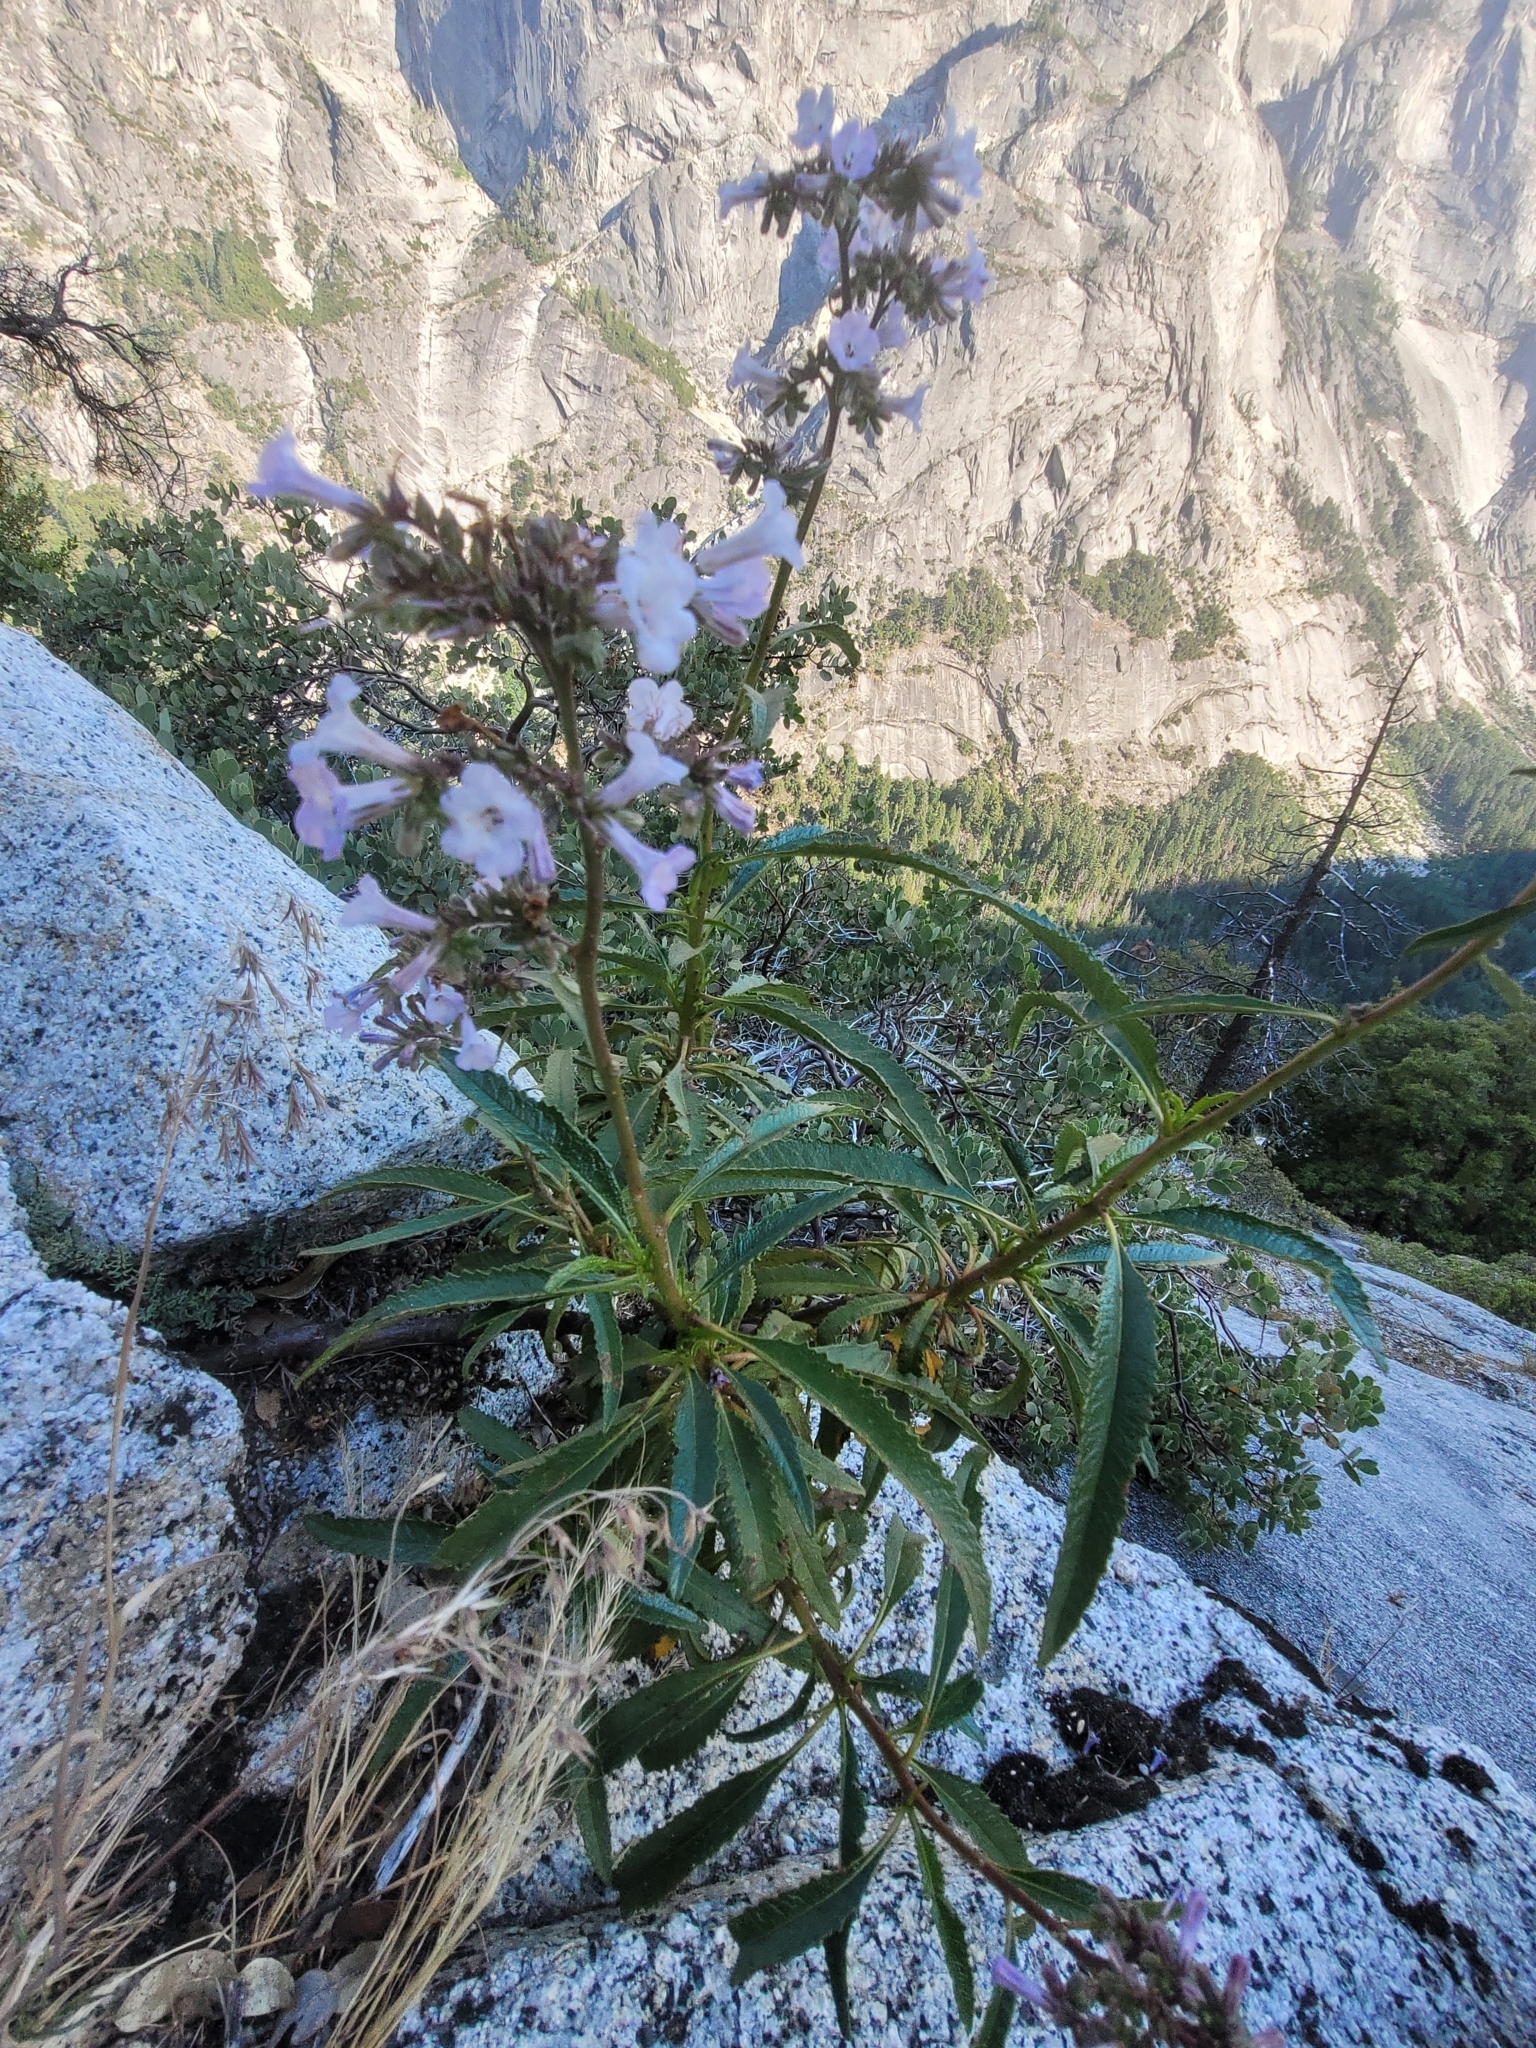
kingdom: Plantae
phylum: Tracheophyta
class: Magnoliopsida
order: Boraginales
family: Namaceae
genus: Eriodictyon
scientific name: Eriodictyon californicum
